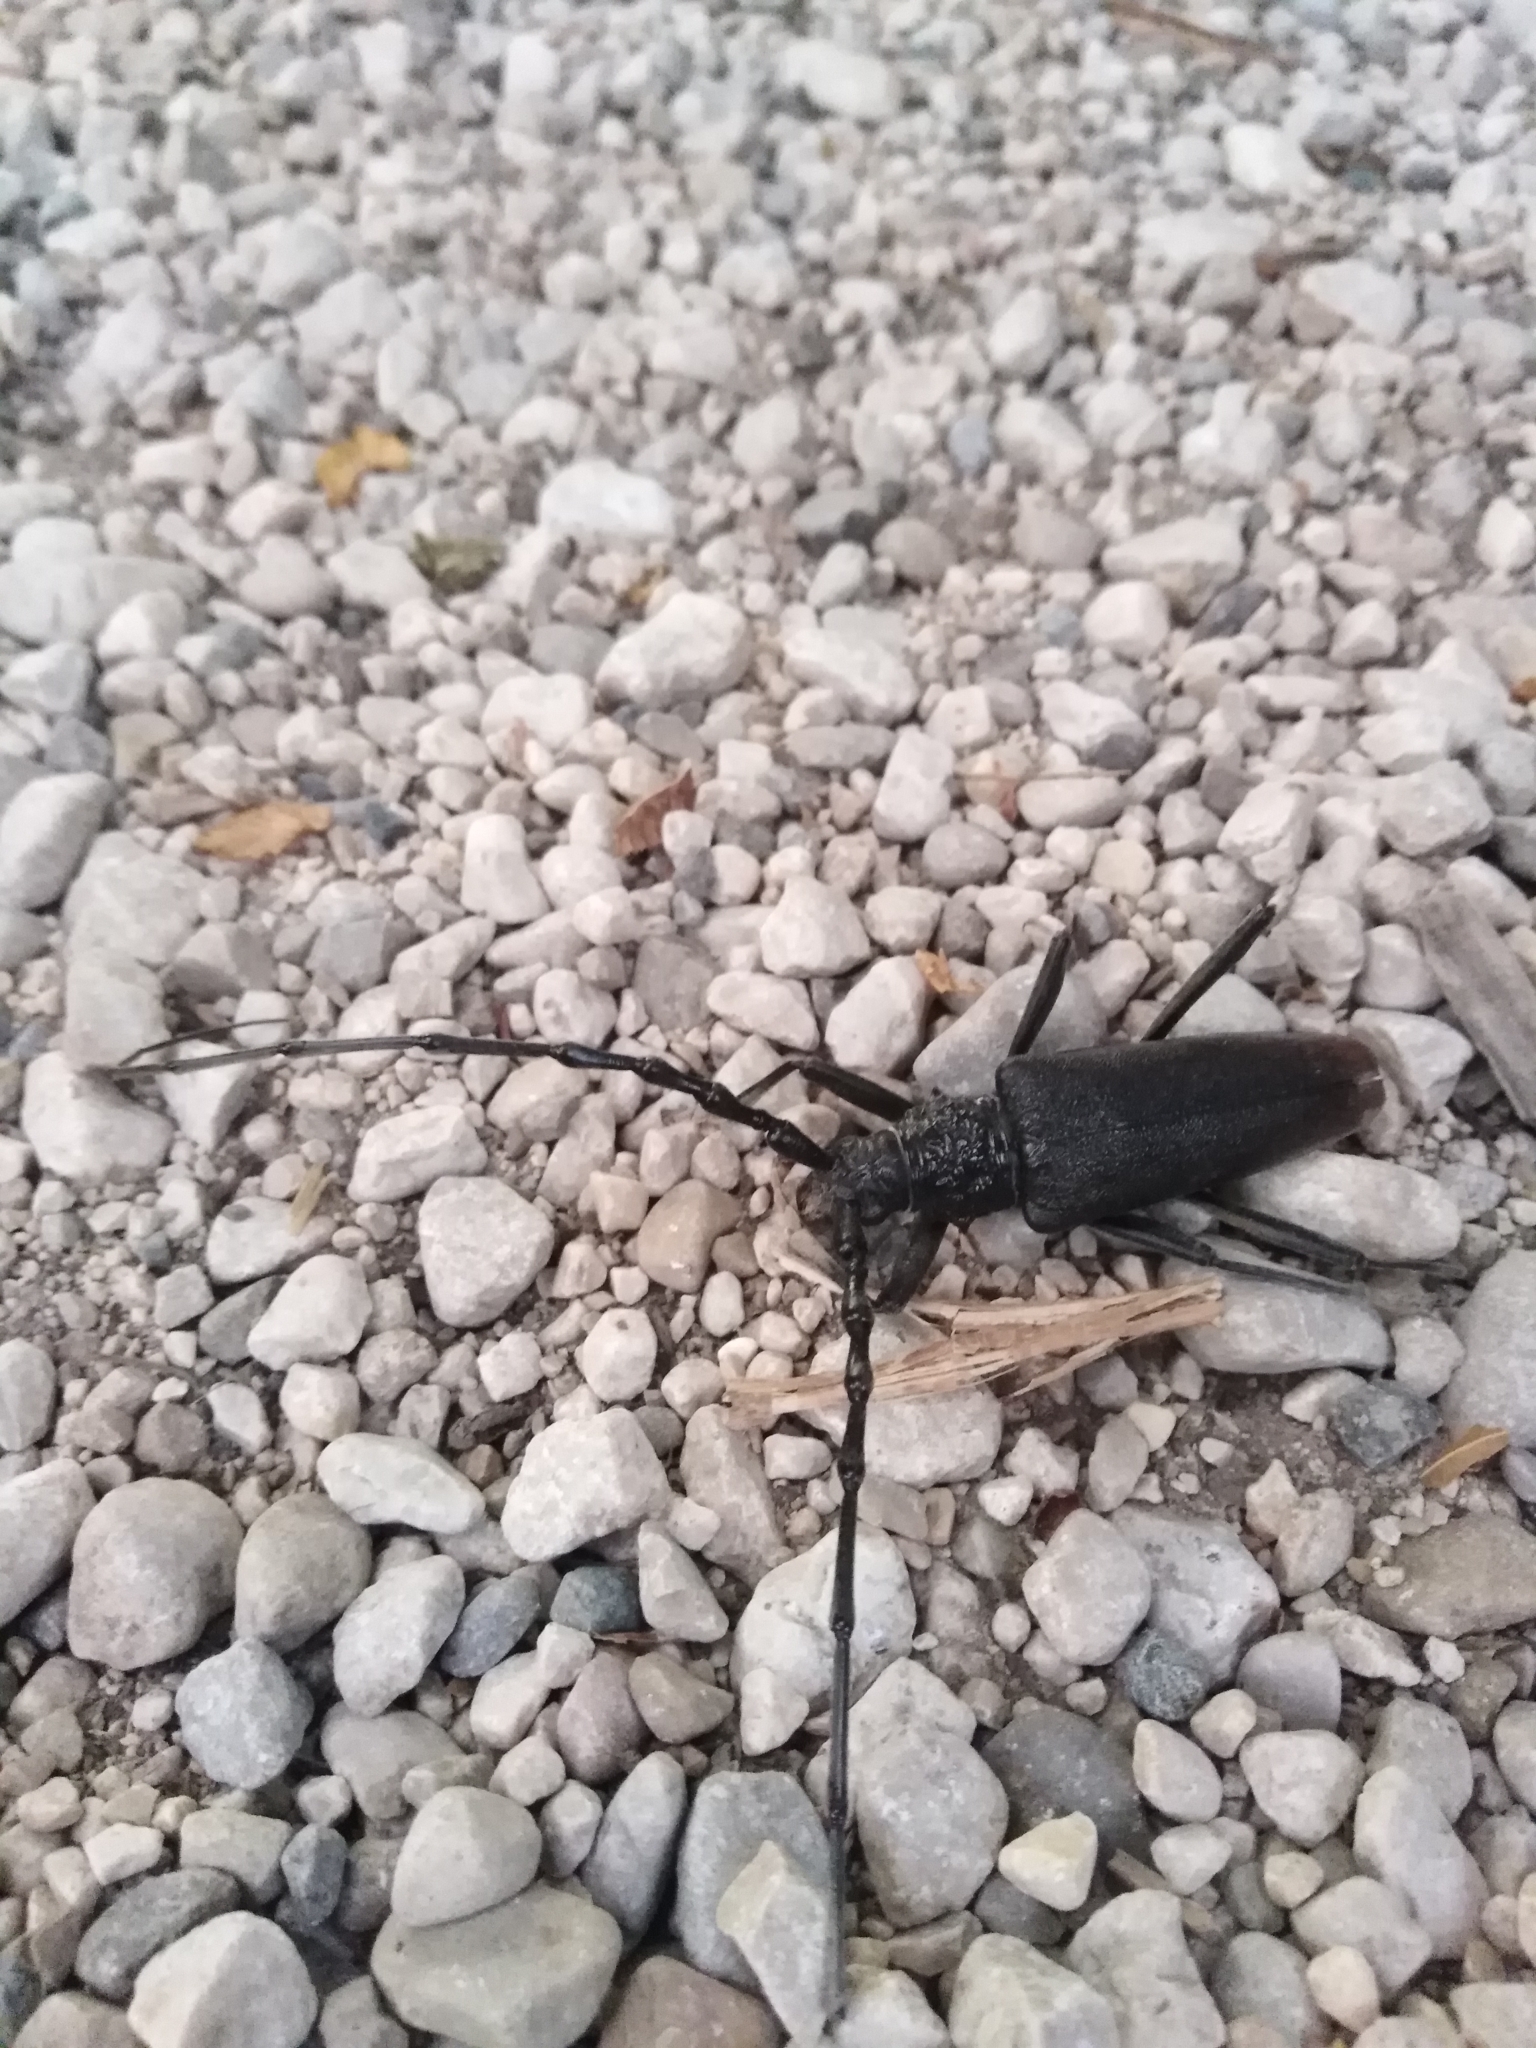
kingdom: Animalia
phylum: Arthropoda
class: Insecta
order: Coleoptera
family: Cerambycidae
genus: Cerambyx
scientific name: Cerambyx cerdo
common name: Cerambyx longicorn
